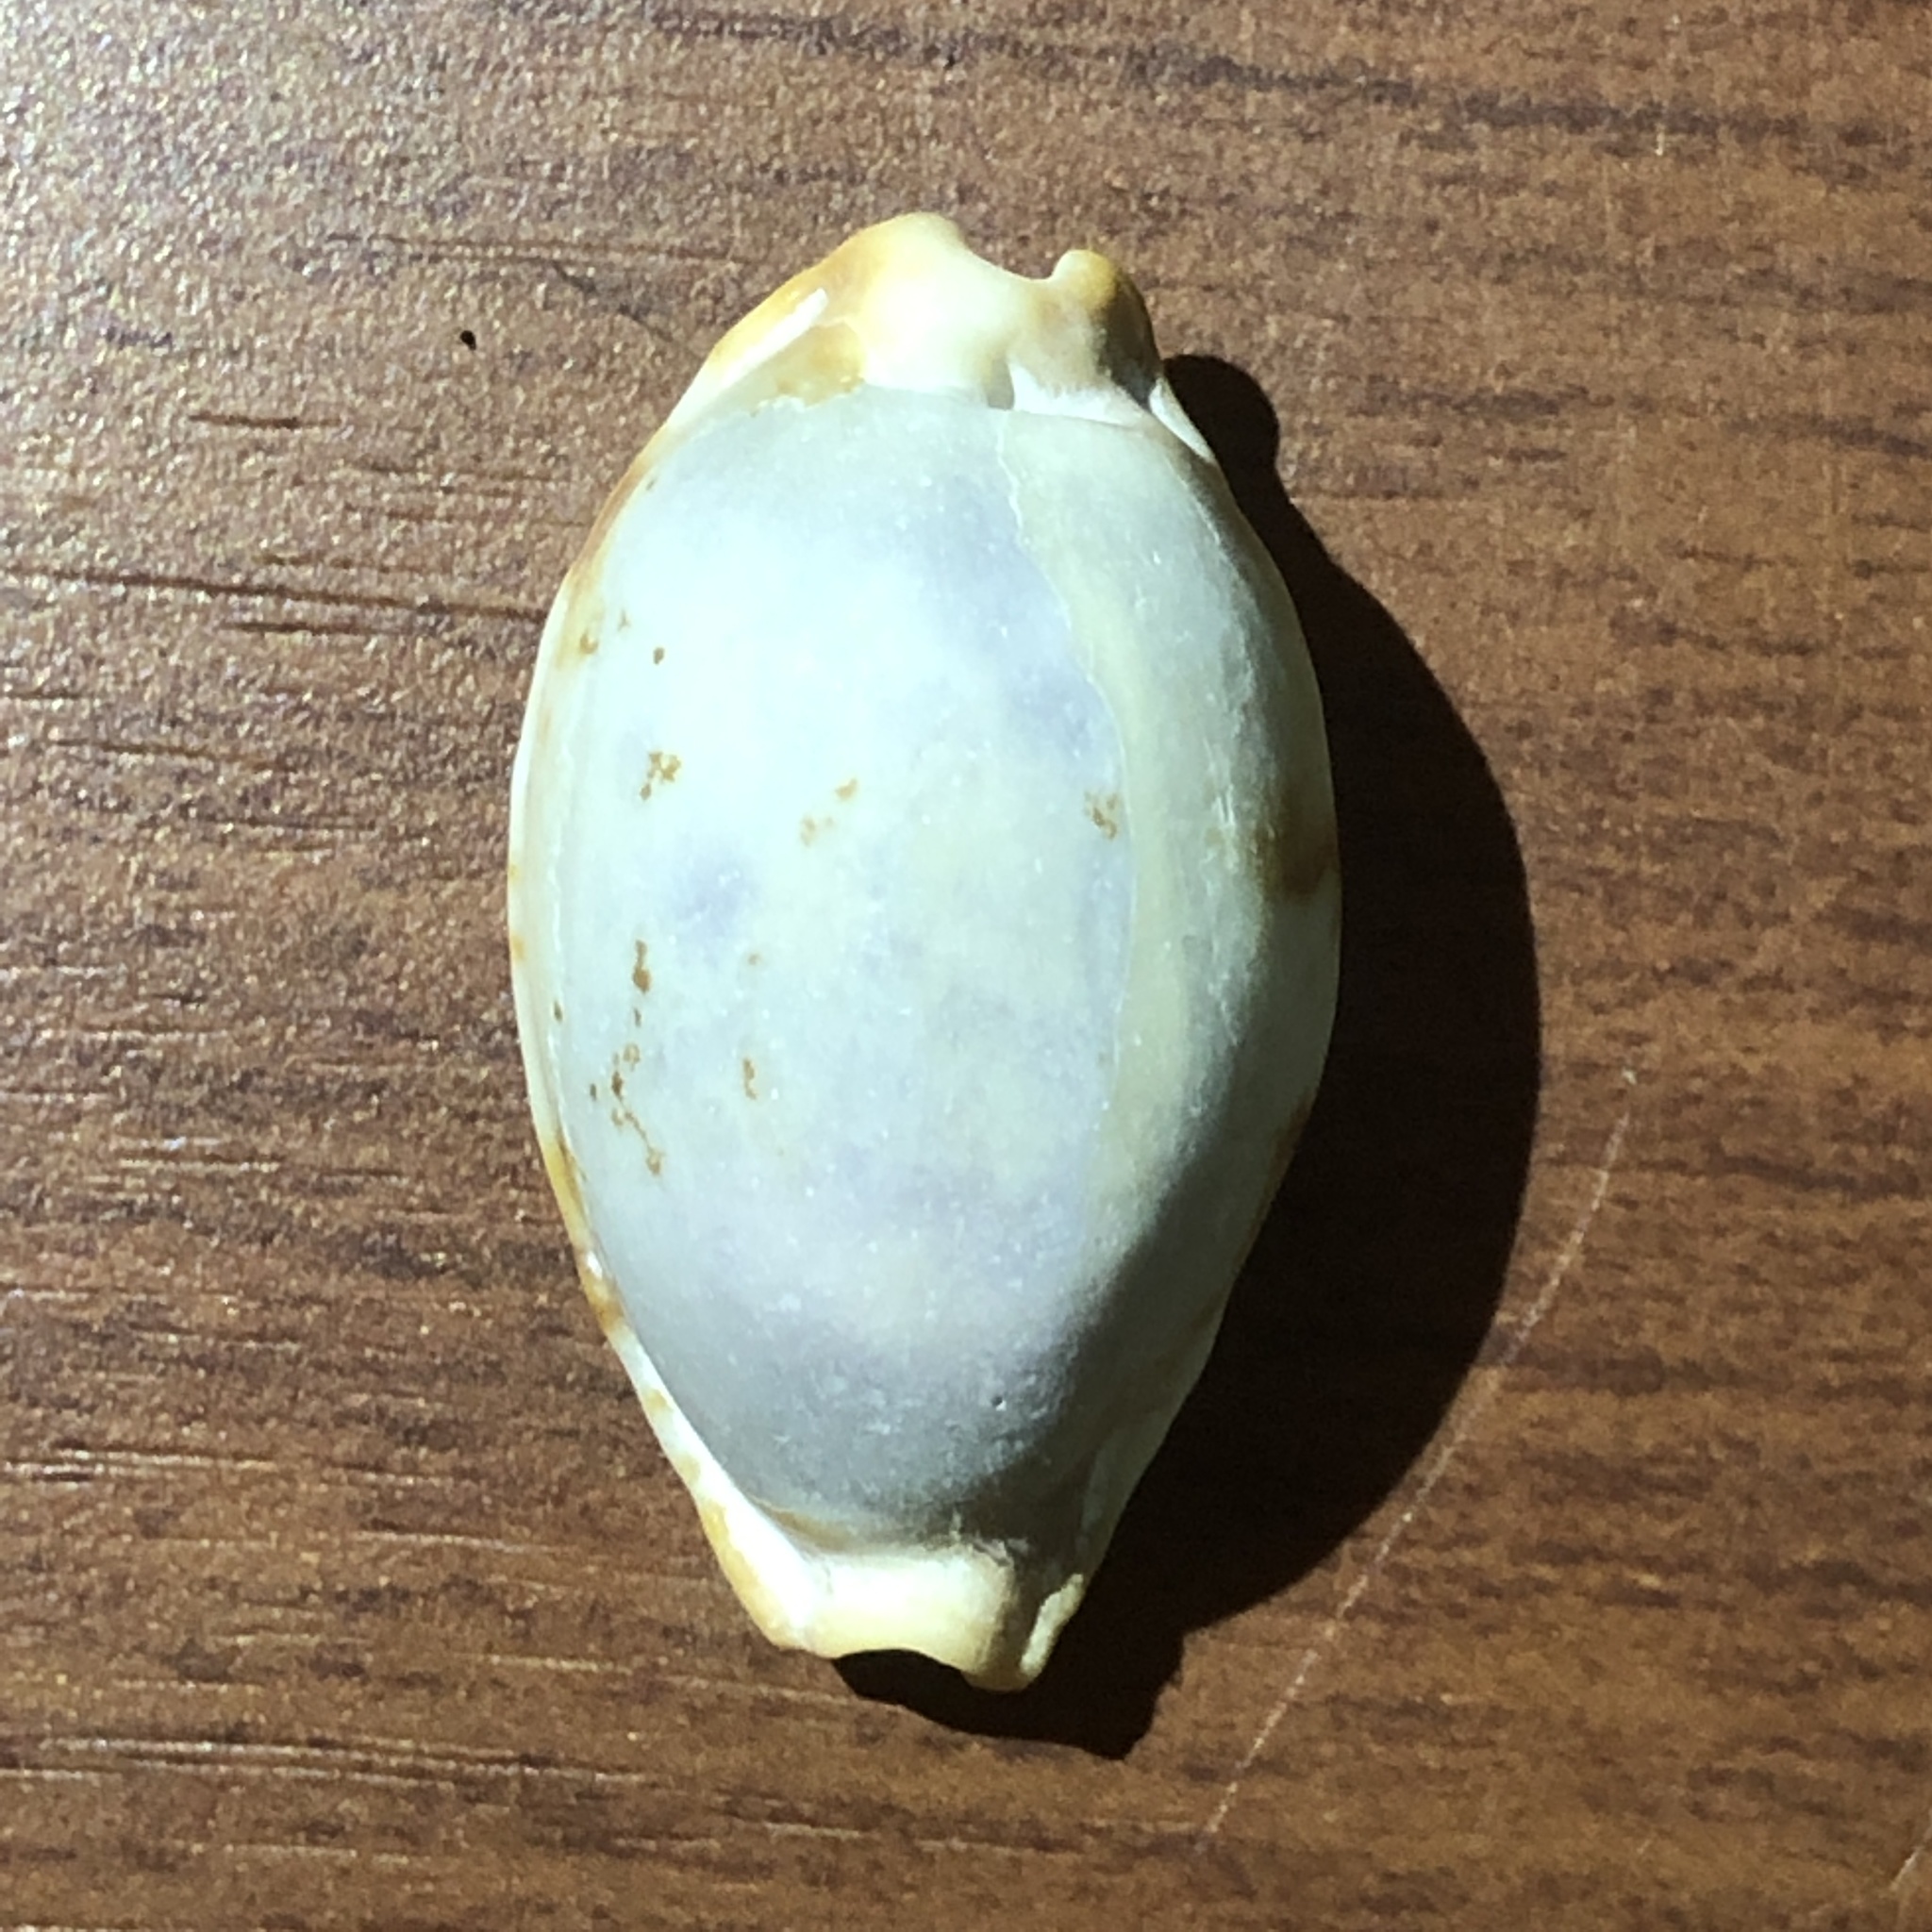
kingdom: Animalia
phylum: Mollusca
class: Gastropoda
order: Littorinimorpha
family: Cypraeidae
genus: Bistolida
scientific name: Bistolida stolida
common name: Stolid cowrie
